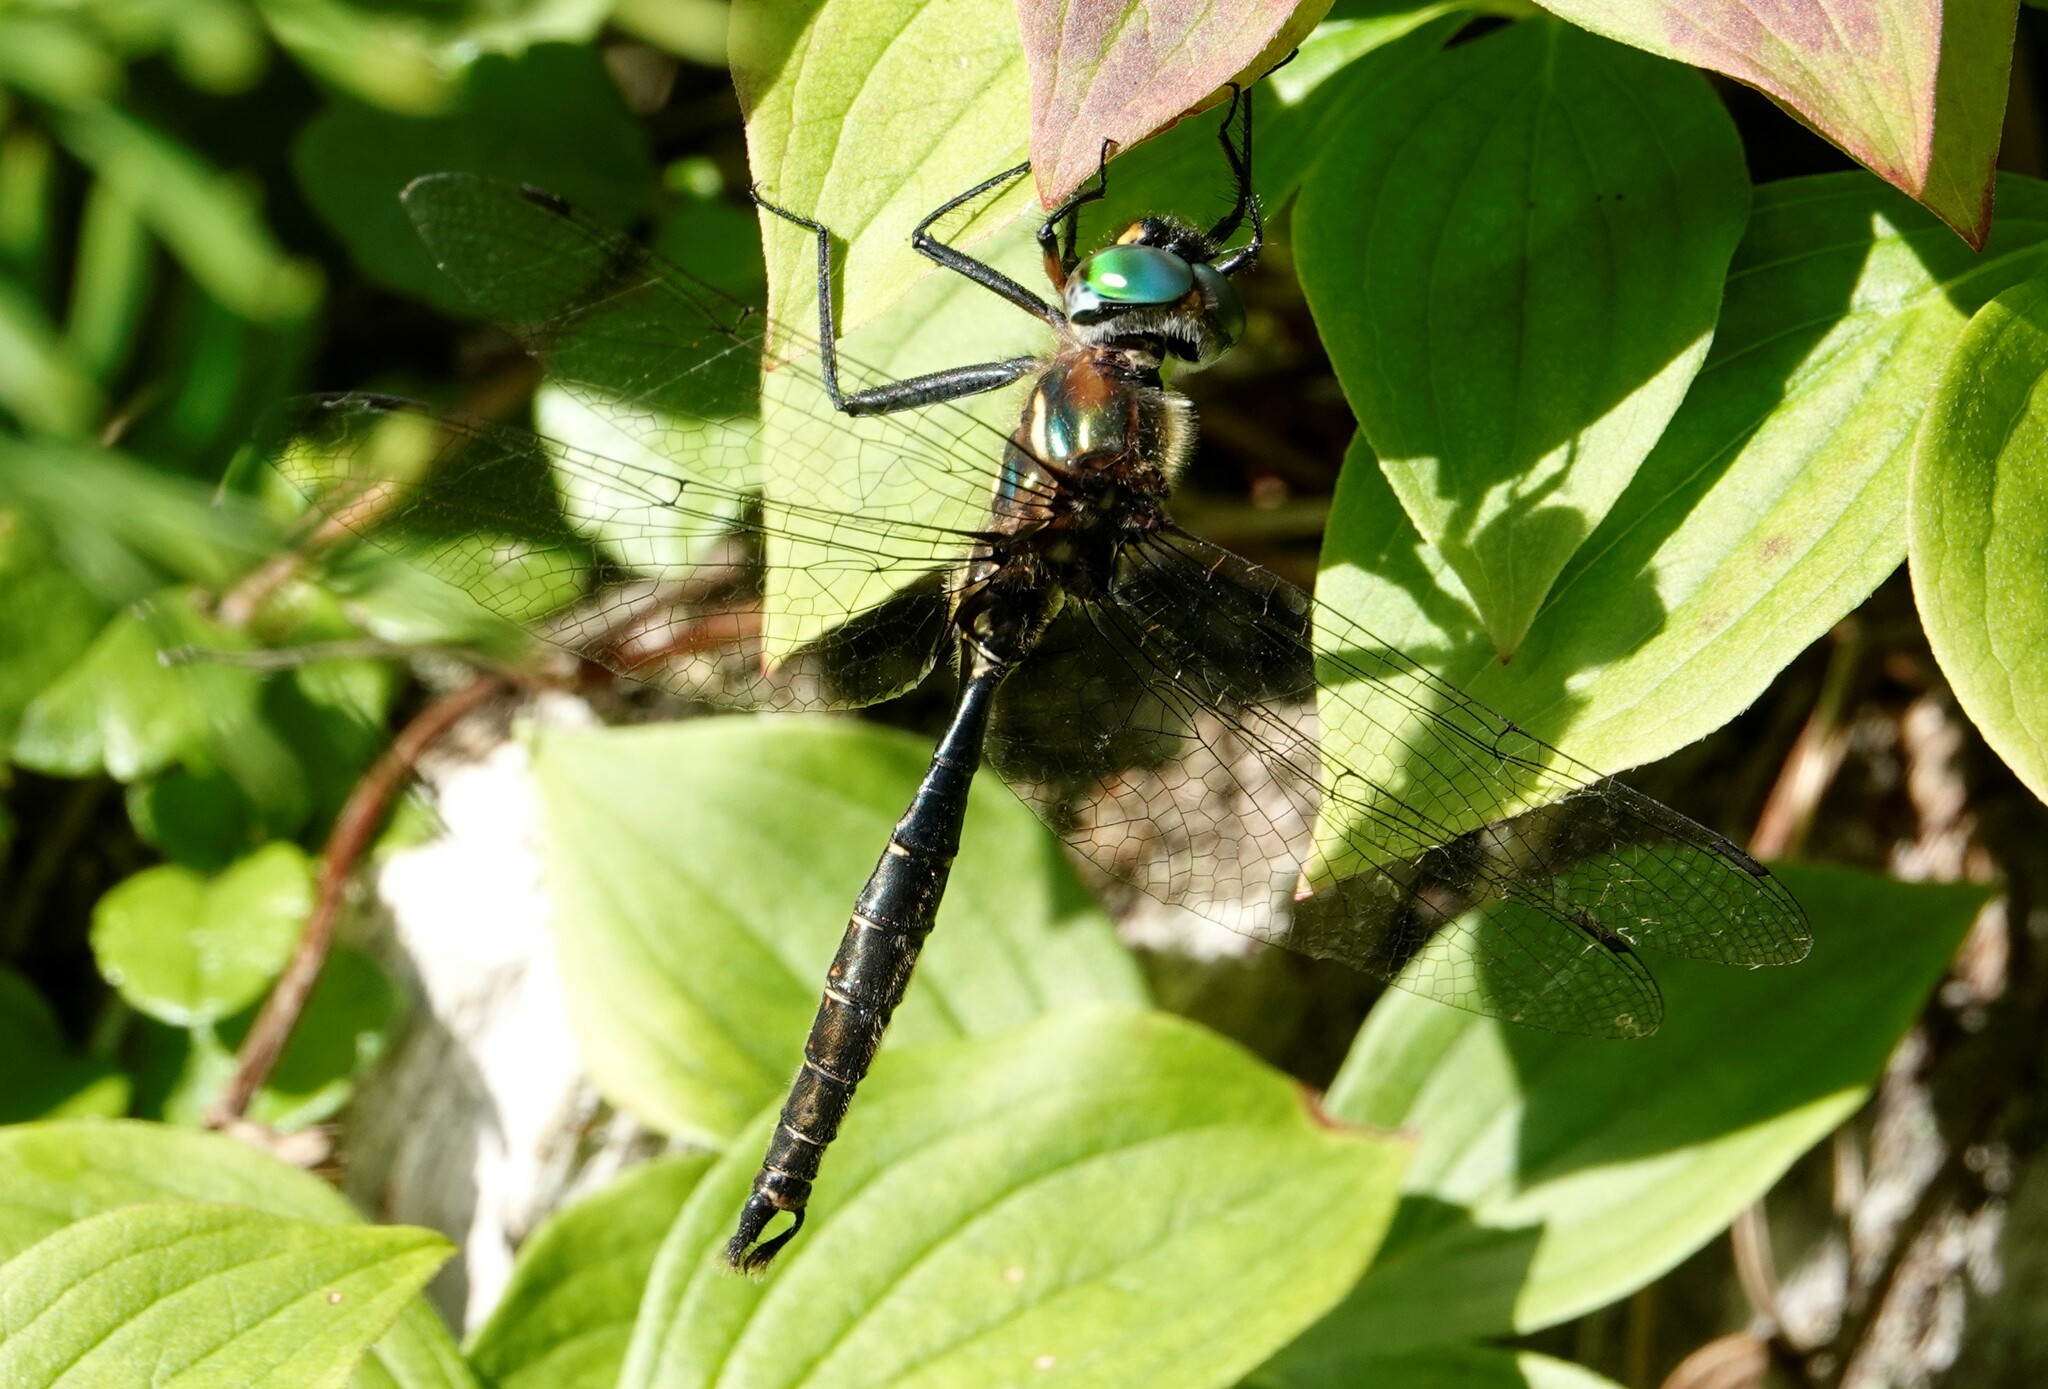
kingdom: Animalia
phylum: Arthropoda
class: Insecta
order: Odonata
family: Corduliidae
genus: Somatochlora
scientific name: Somatochlora walshii
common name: Brush-tipped emerald
